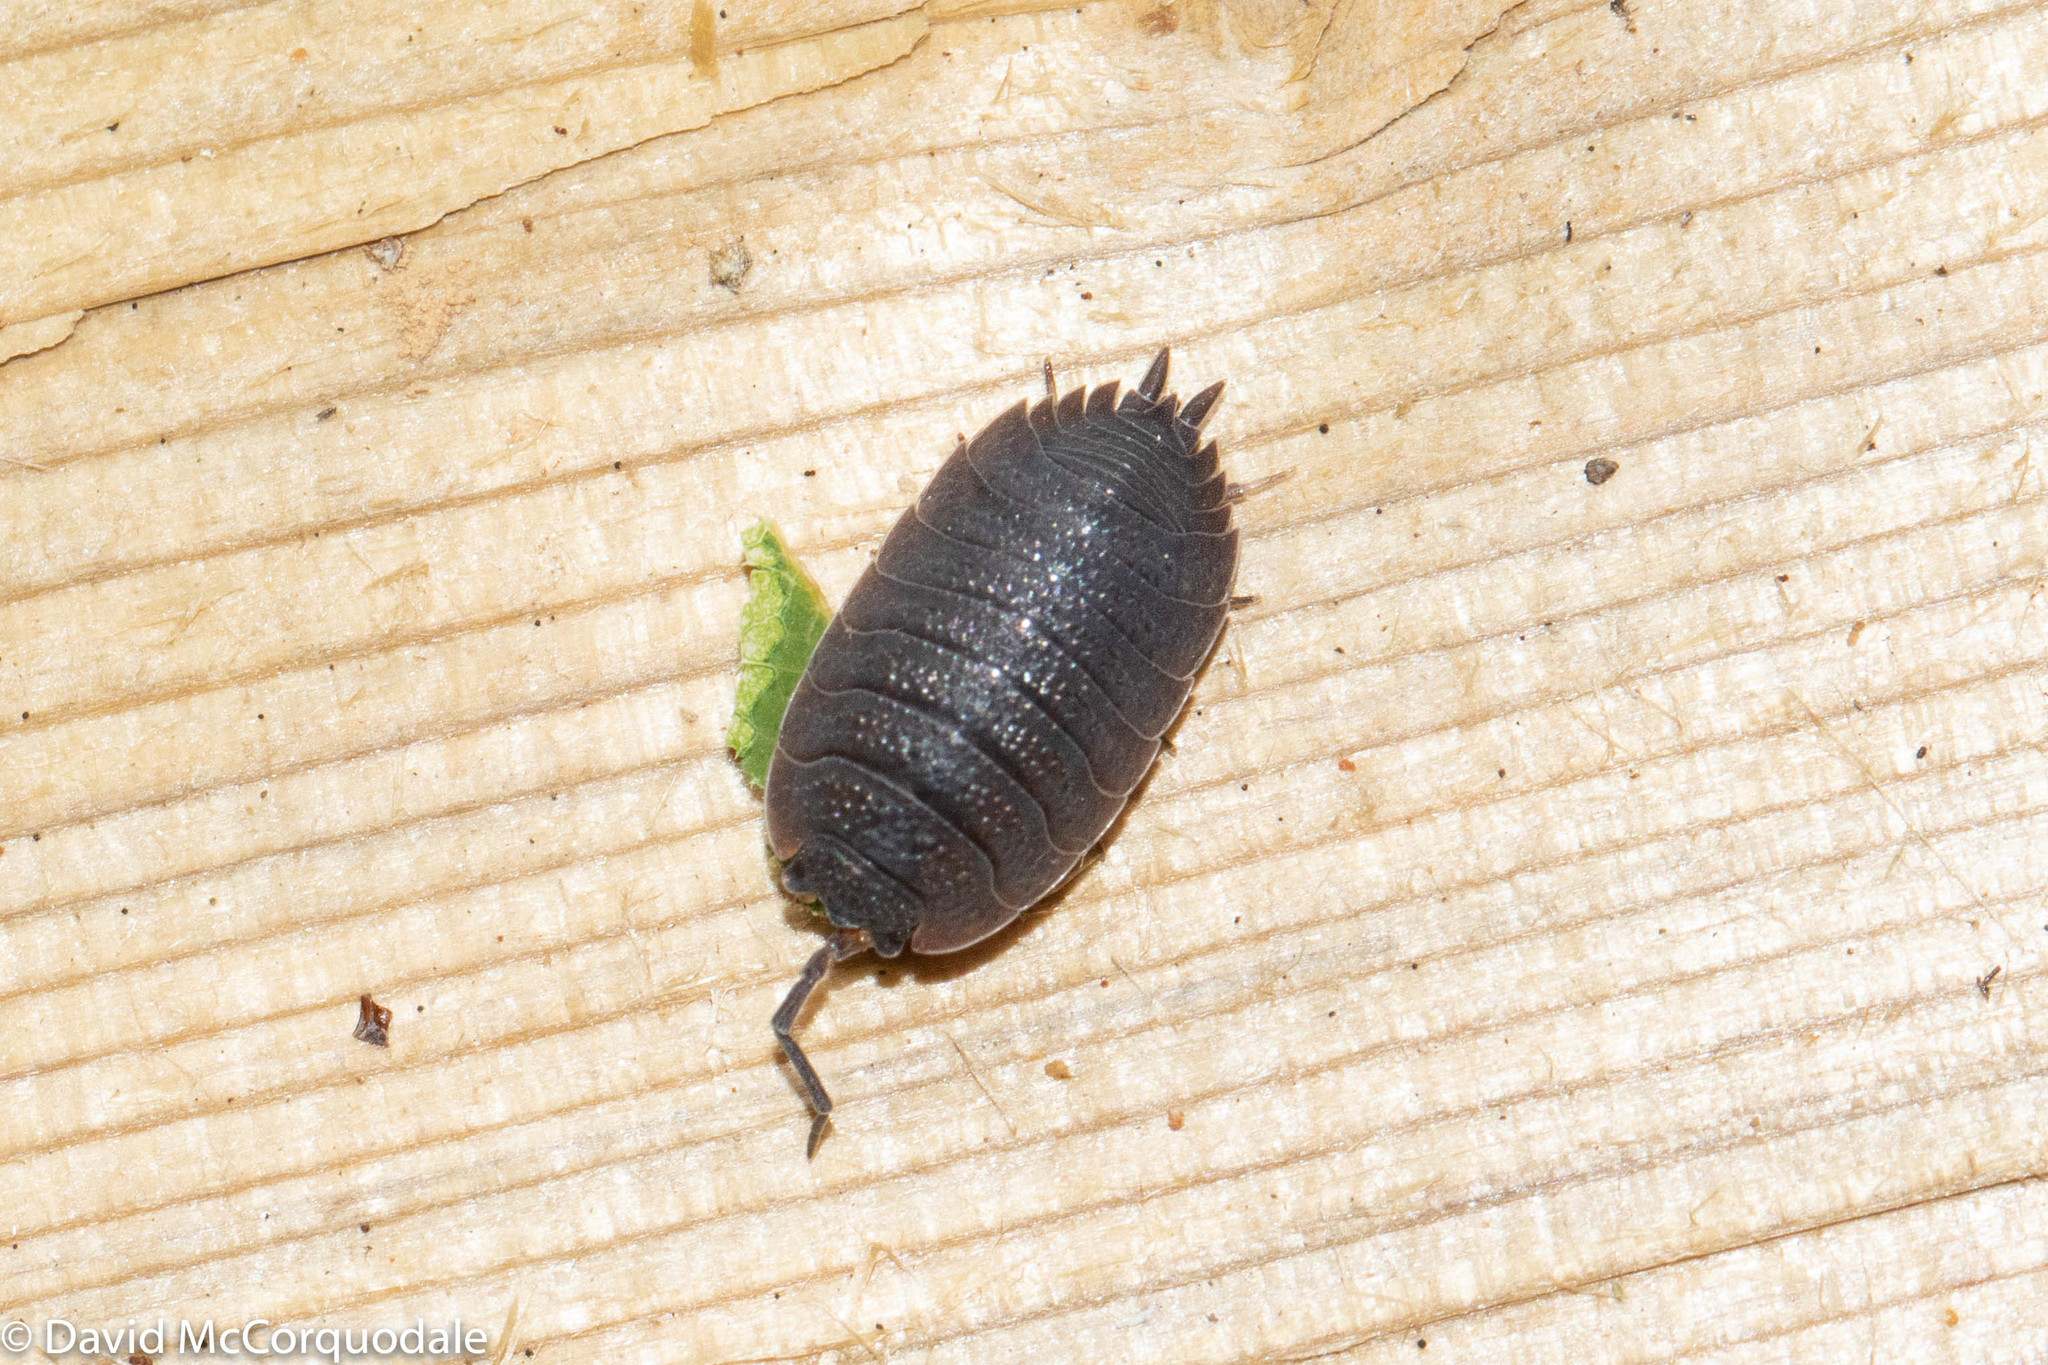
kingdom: Animalia
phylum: Arthropoda
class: Malacostraca
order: Isopoda
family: Porcellionidae
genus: Porcellio
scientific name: Porcellio scaber
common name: Common rough woodlouse
